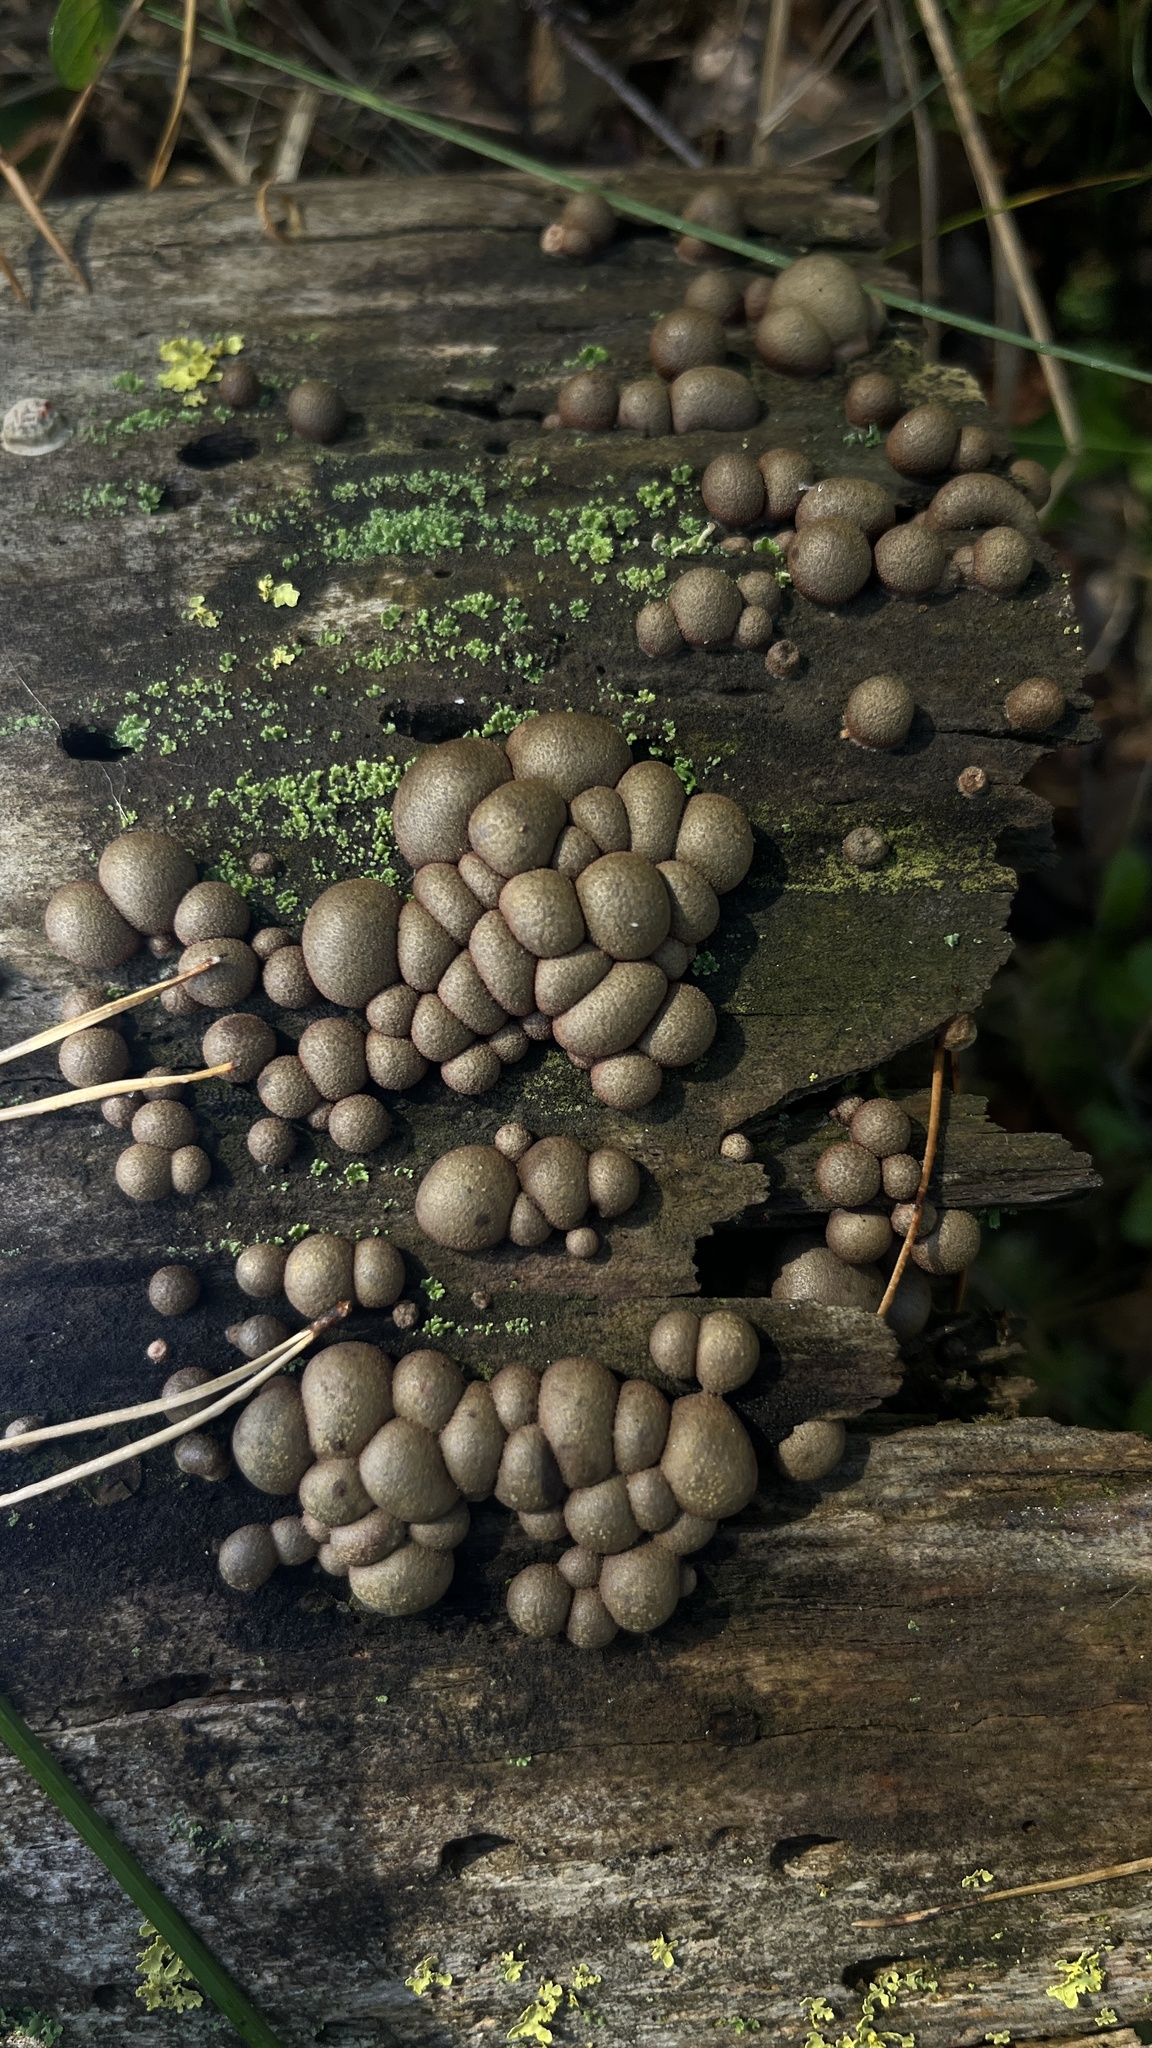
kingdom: Protozoa
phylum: Mycetozoa
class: Myxomycetes
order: Cribrariales
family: Tubiferaceae
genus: Lycogala
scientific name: Lycogala epidendrum
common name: Wolf's milk
